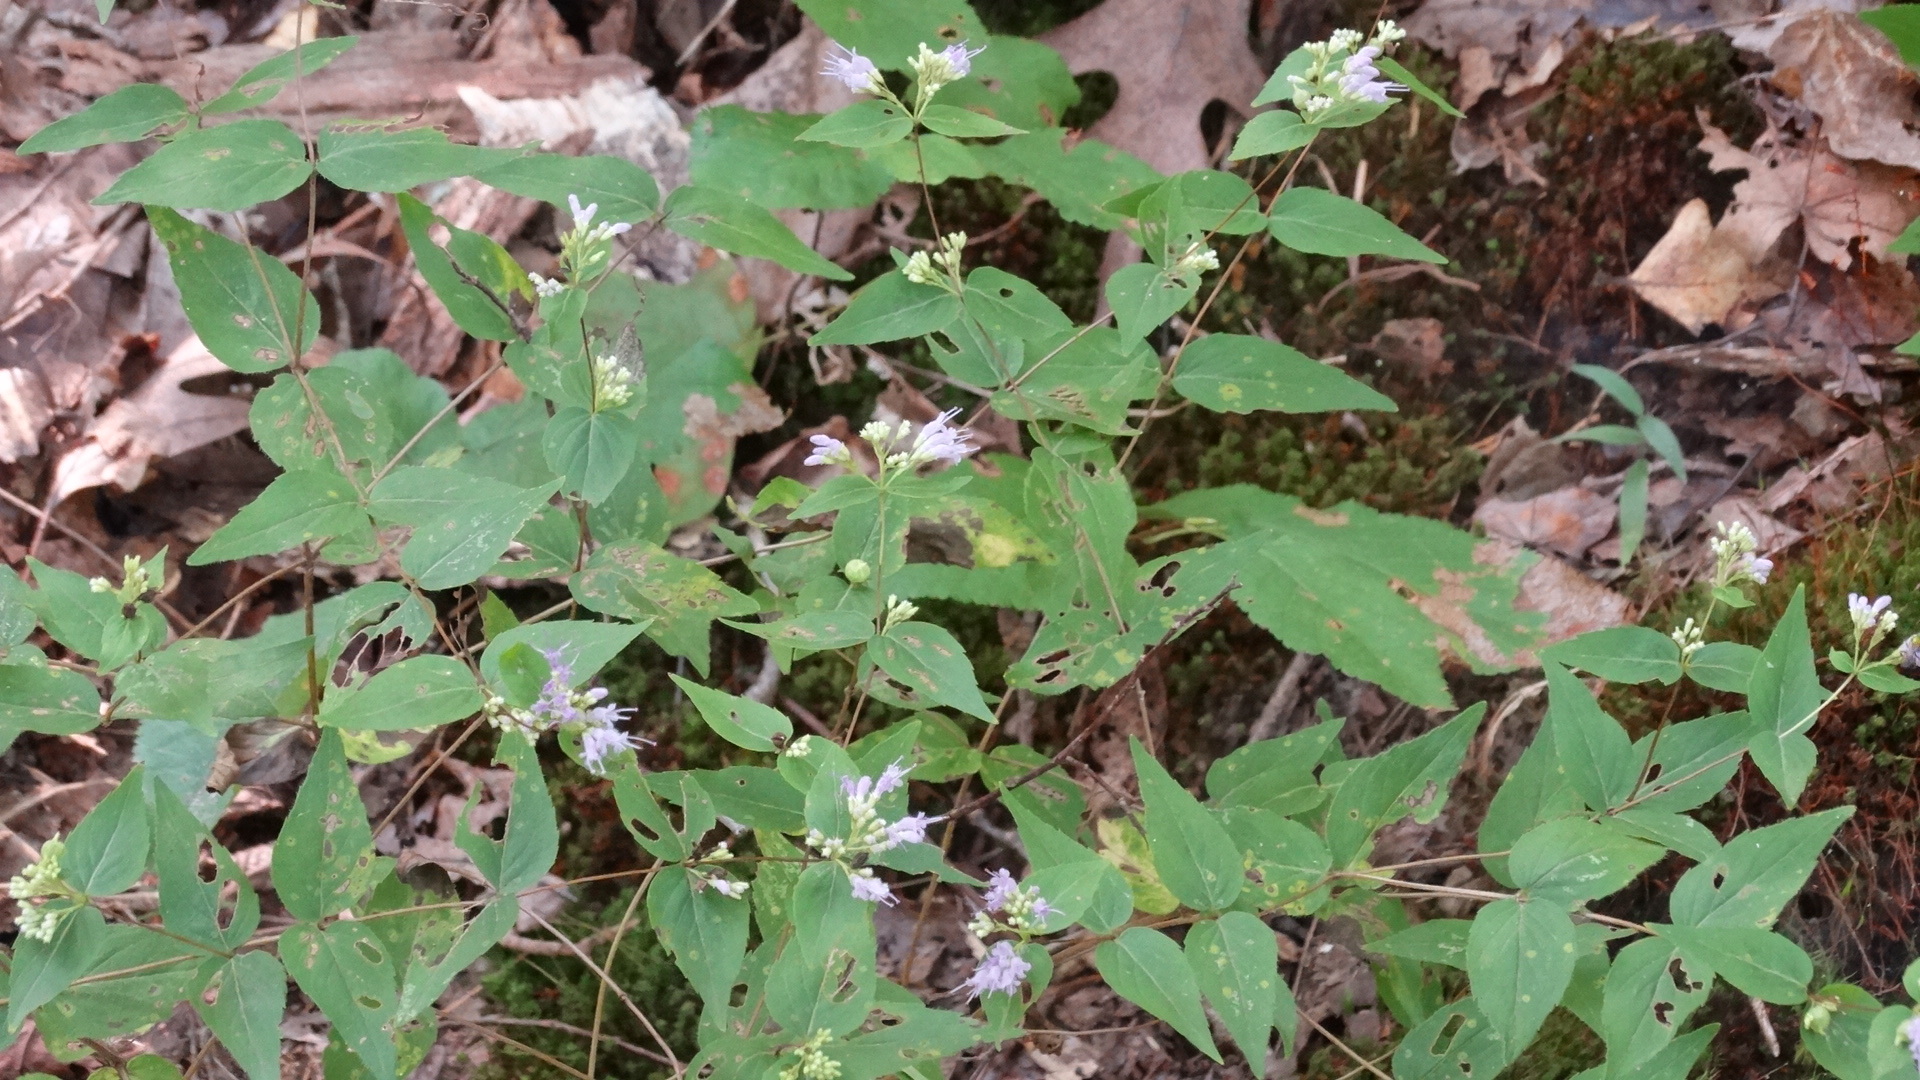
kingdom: Plantae
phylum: Tracheophyta
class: Magnoliopsida
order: Lamiales
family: Lamiaceae
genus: Cunila
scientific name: Cunila origanoides
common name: American dittany
